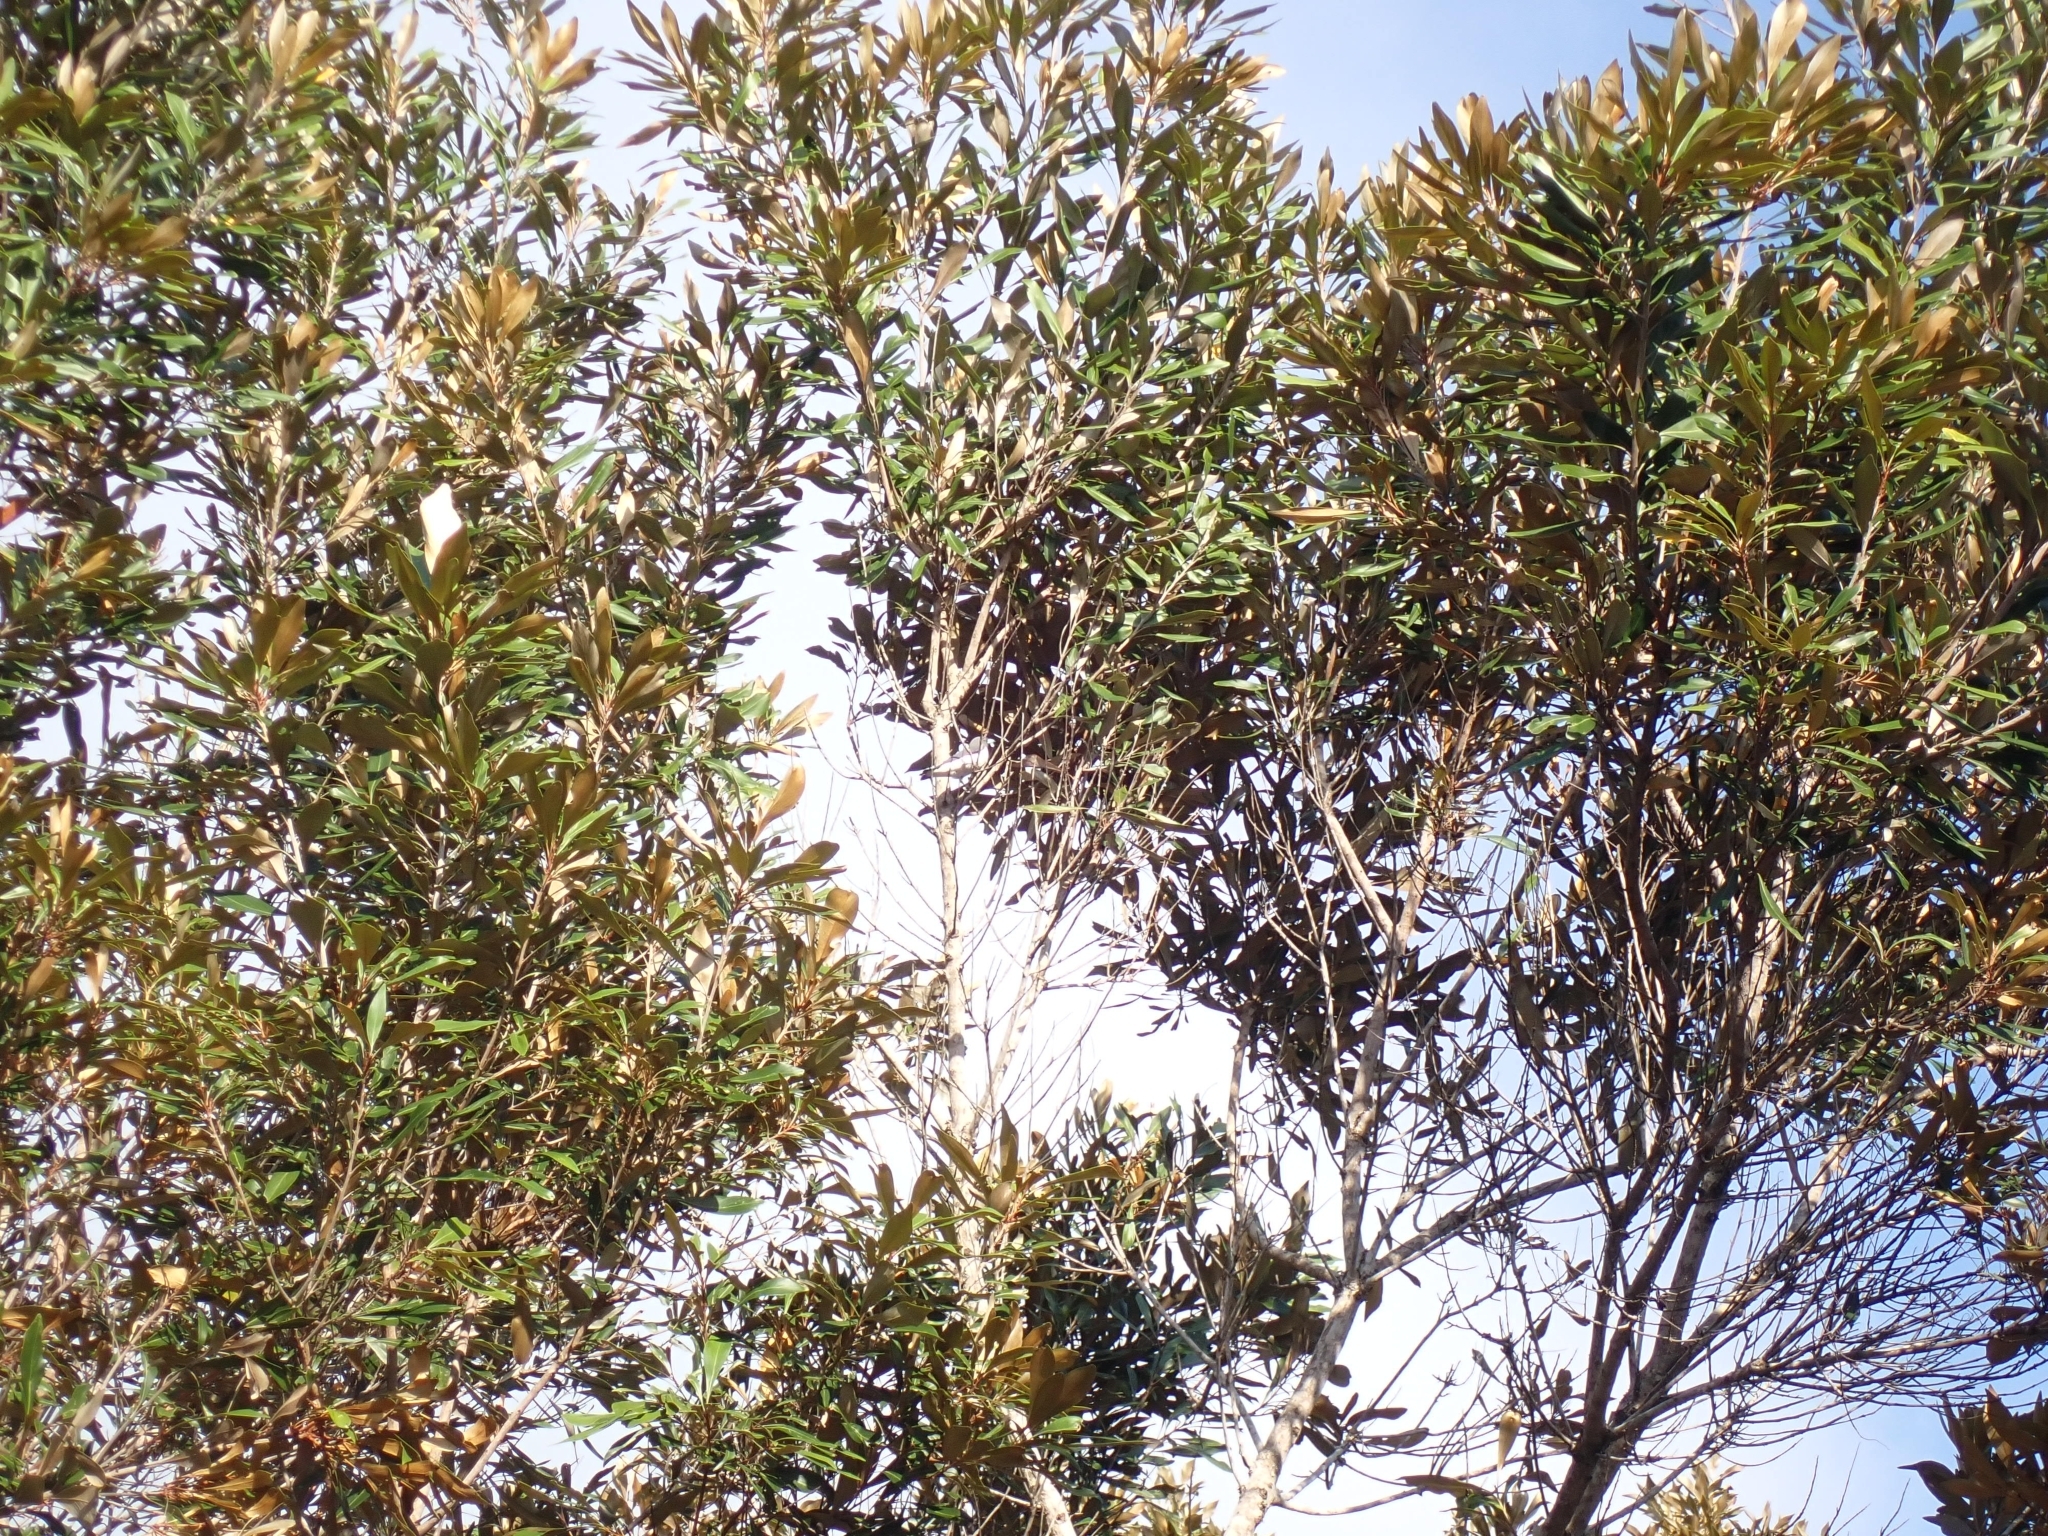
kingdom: Animalia
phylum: Chordata
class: Aves
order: Passeriformes
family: Artamidae
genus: Artamus
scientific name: Artamus leucoryn
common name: White-breasted woodswallow
